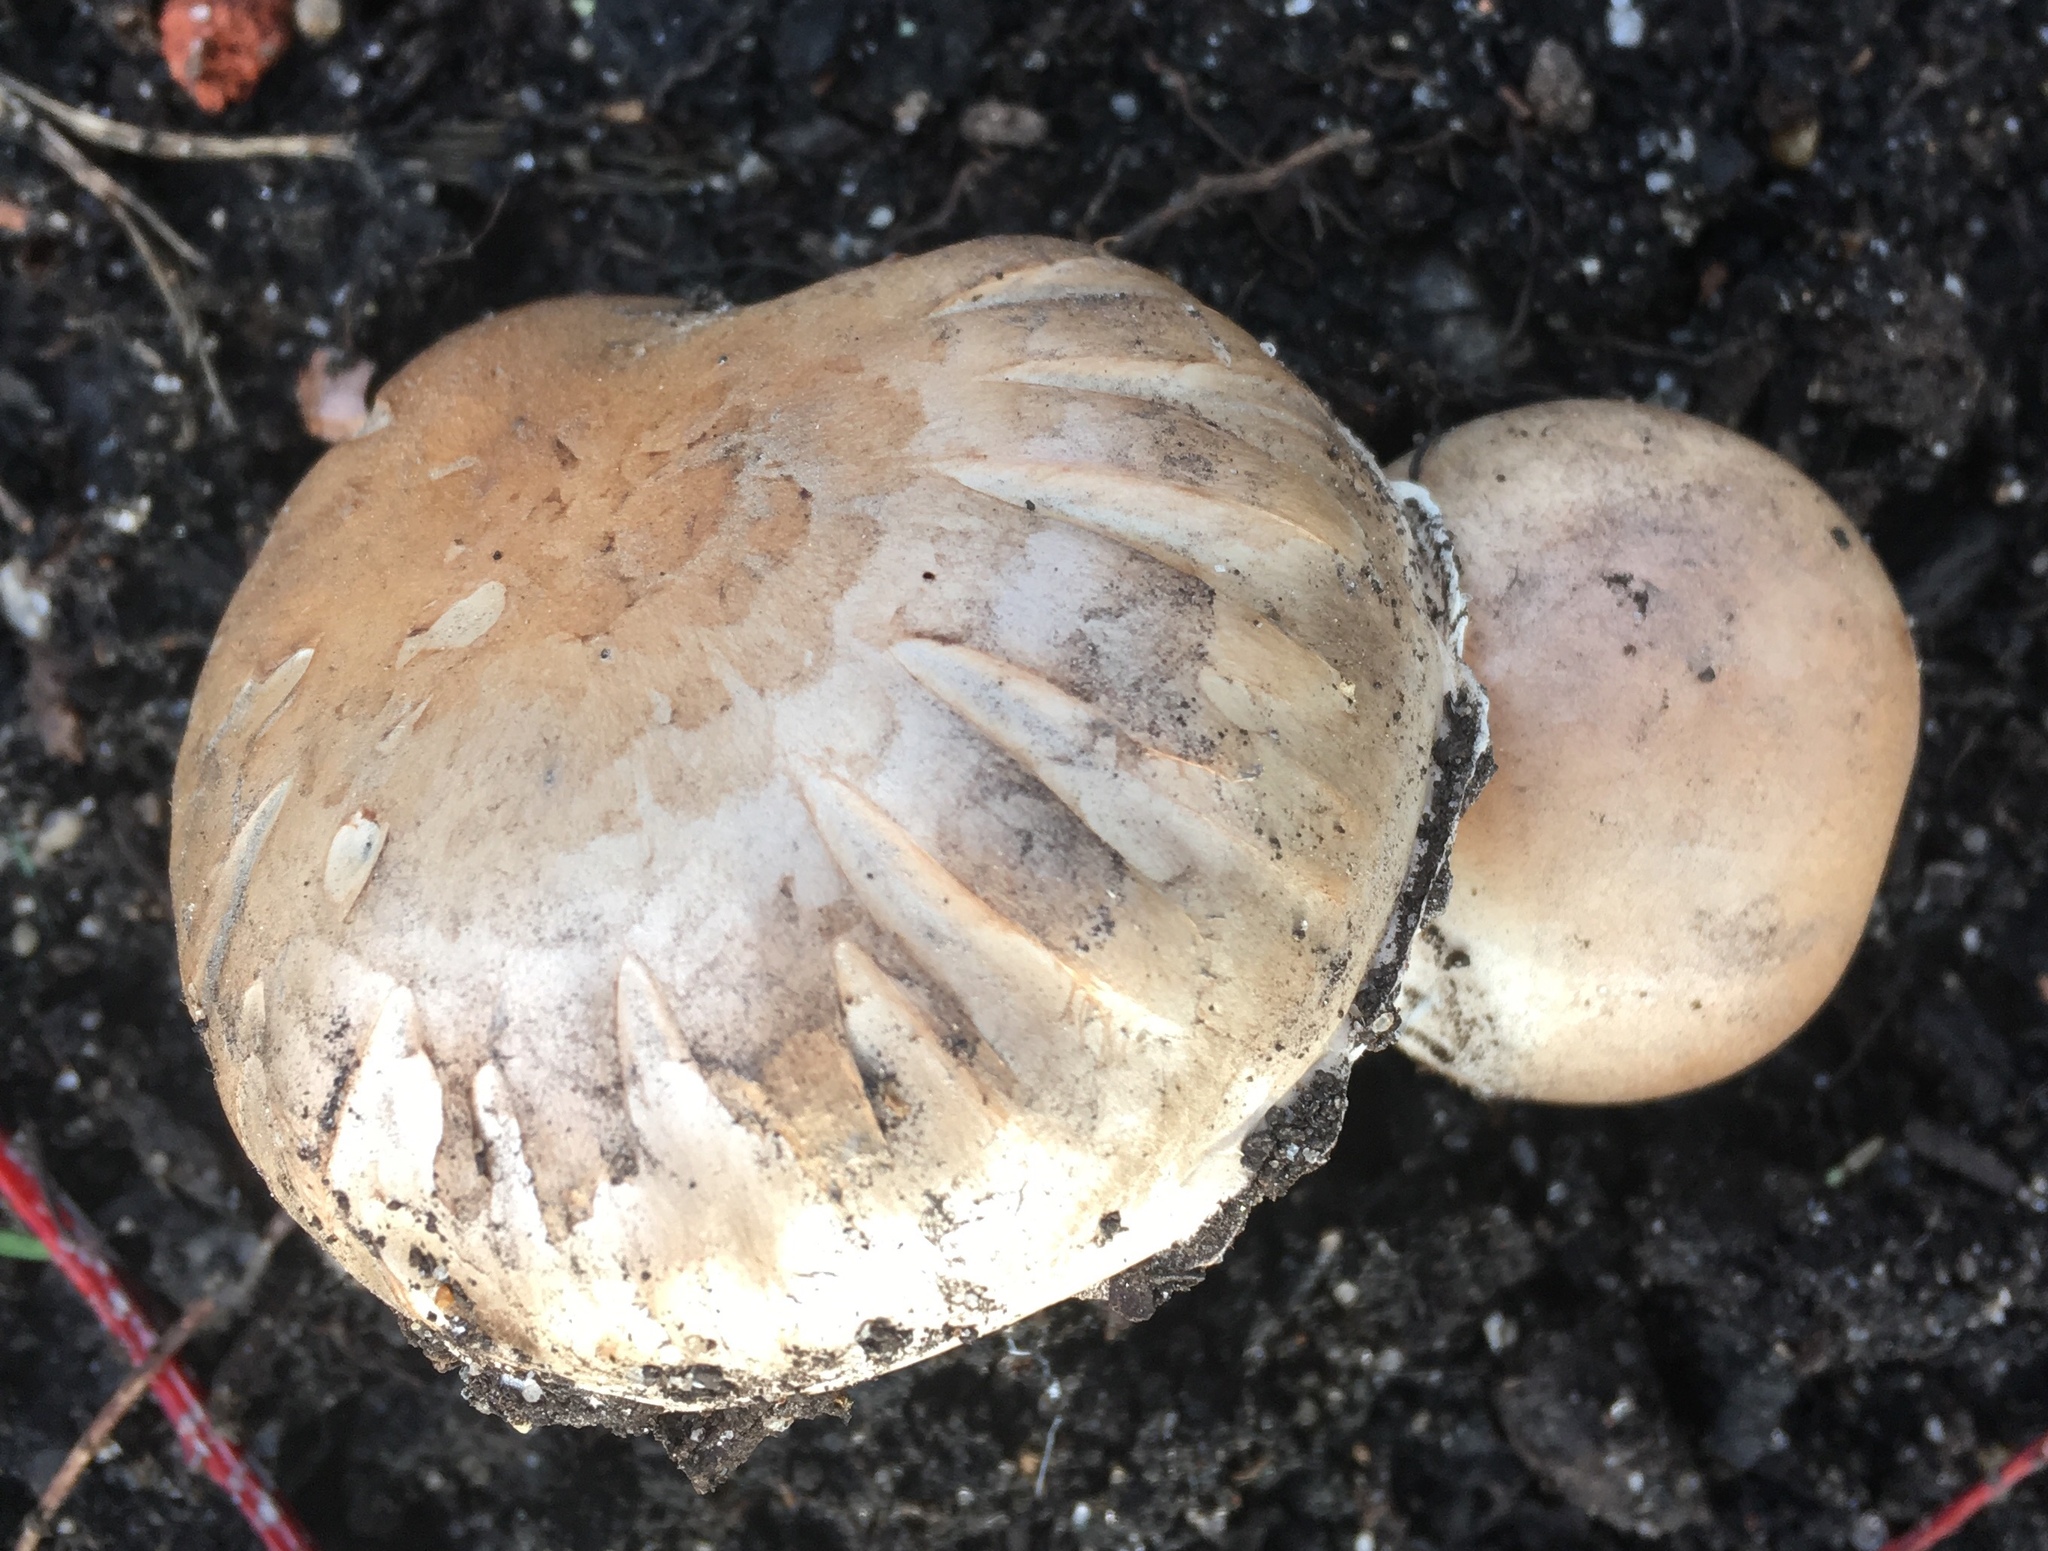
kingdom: Fungi
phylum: Basidiomycota
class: Agaricomycetes
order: Agaricales
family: Agaricaceae
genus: Agaricus
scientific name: Agaricus bitorquis
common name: Pavement mushroom
